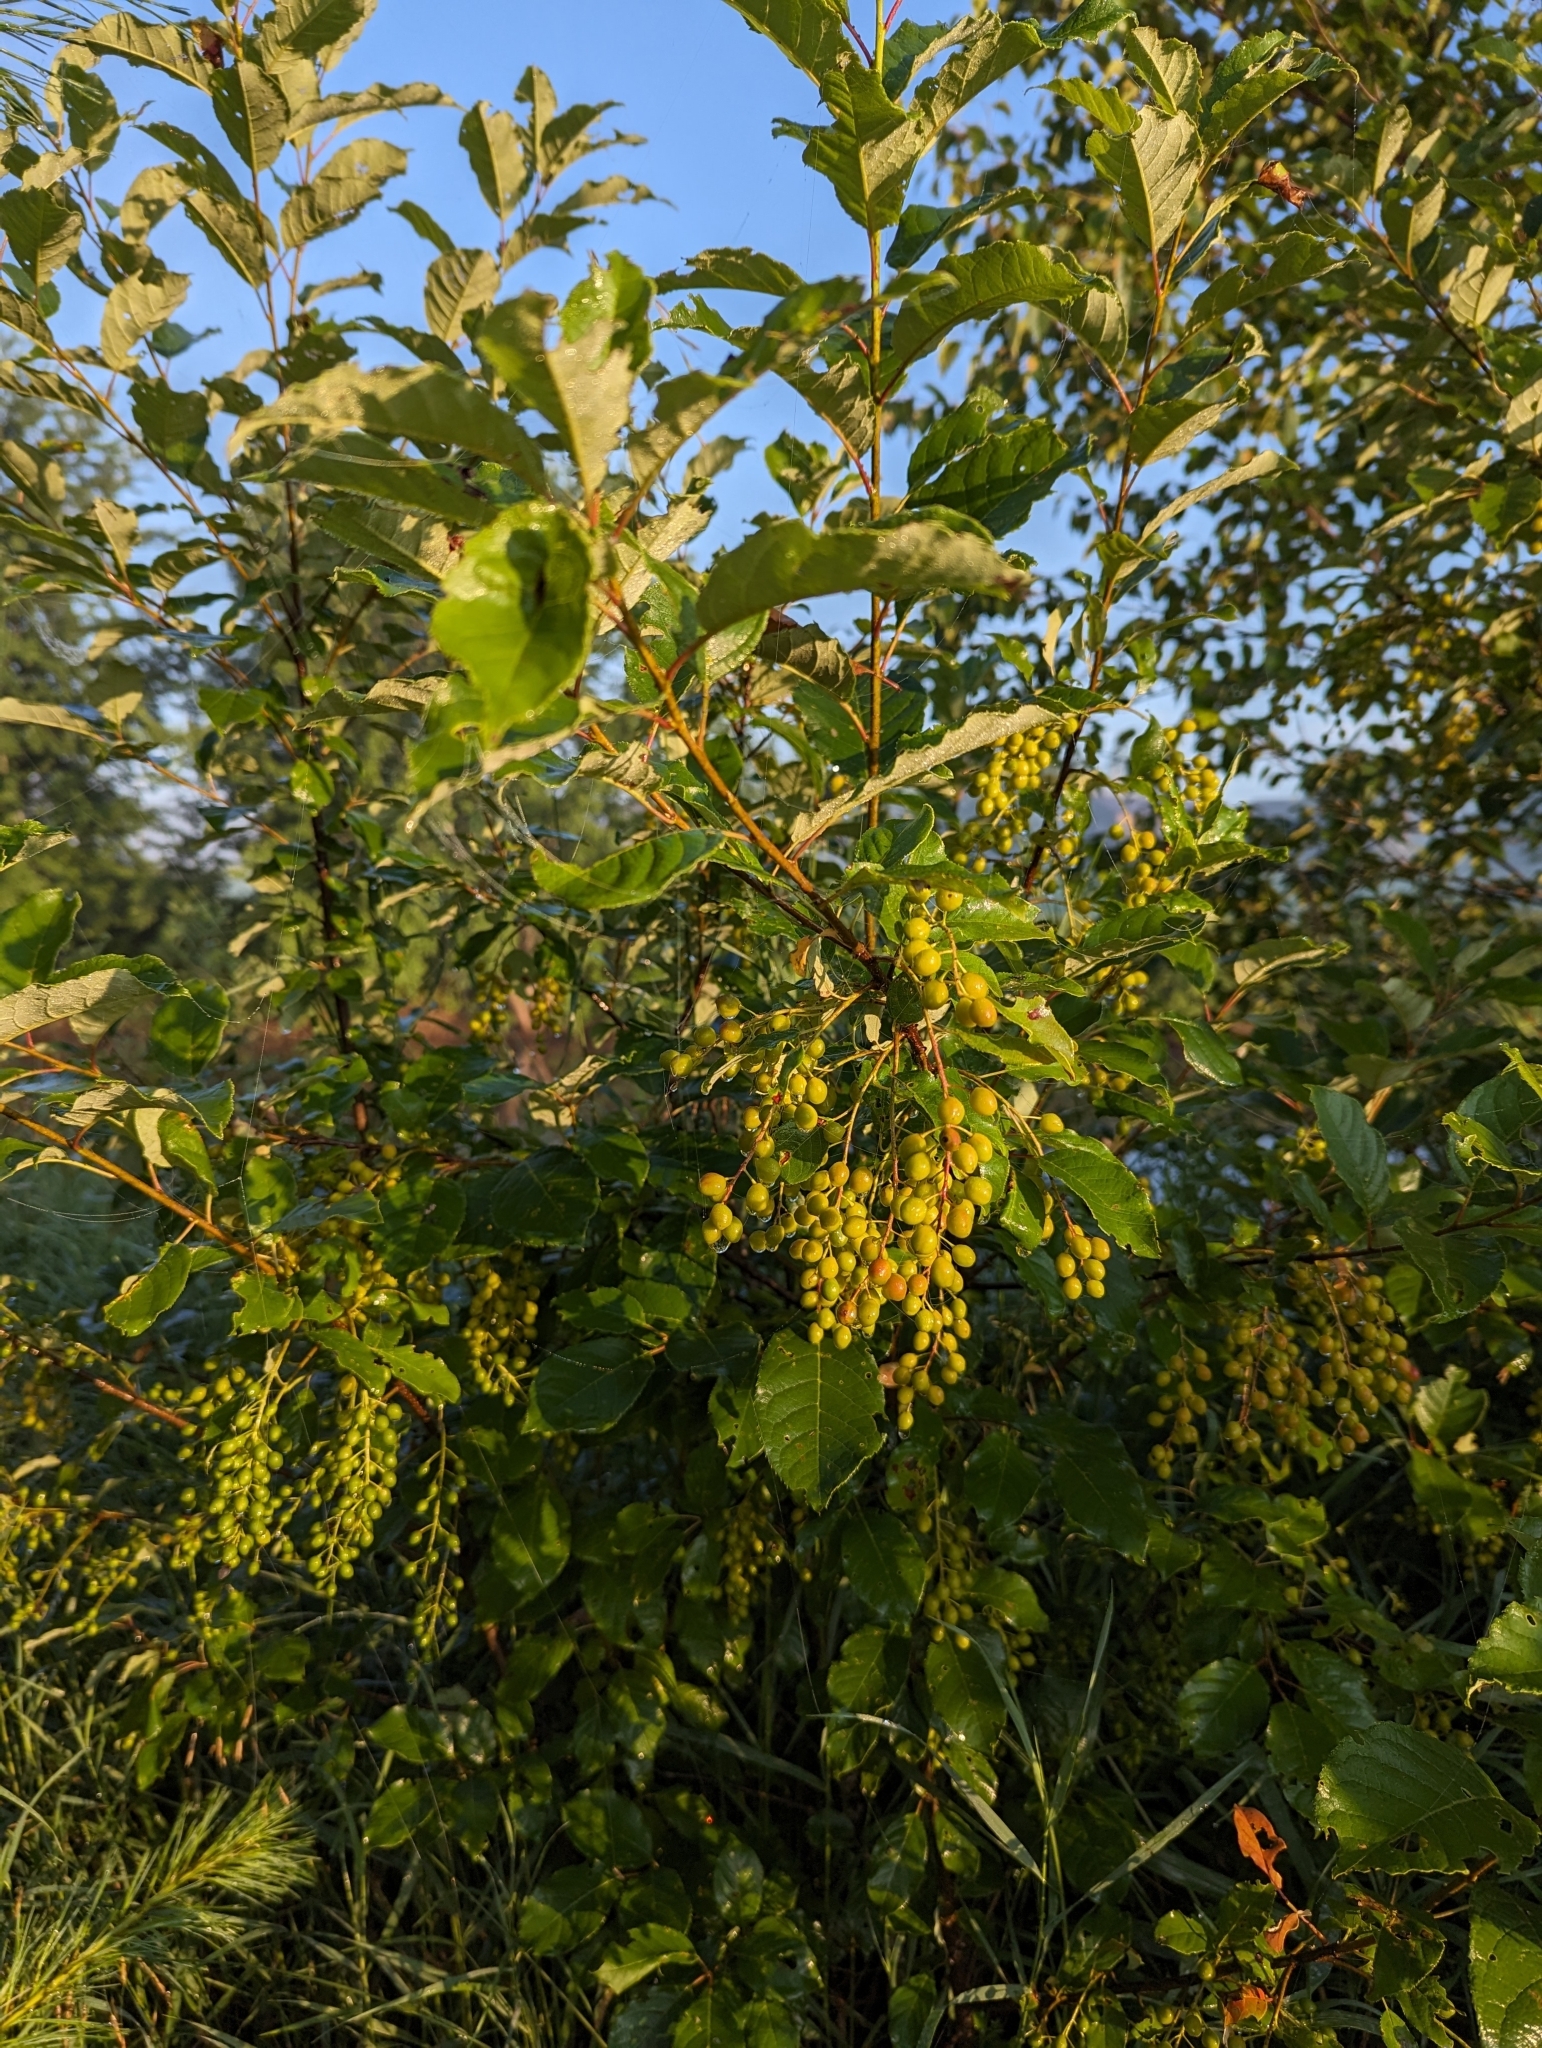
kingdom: Plantae
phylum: Tracheophyta
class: Magnoliopsida
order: Rosales
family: Rosaceae
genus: Prunus
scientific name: Prunus virginiana
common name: Chokecherry
